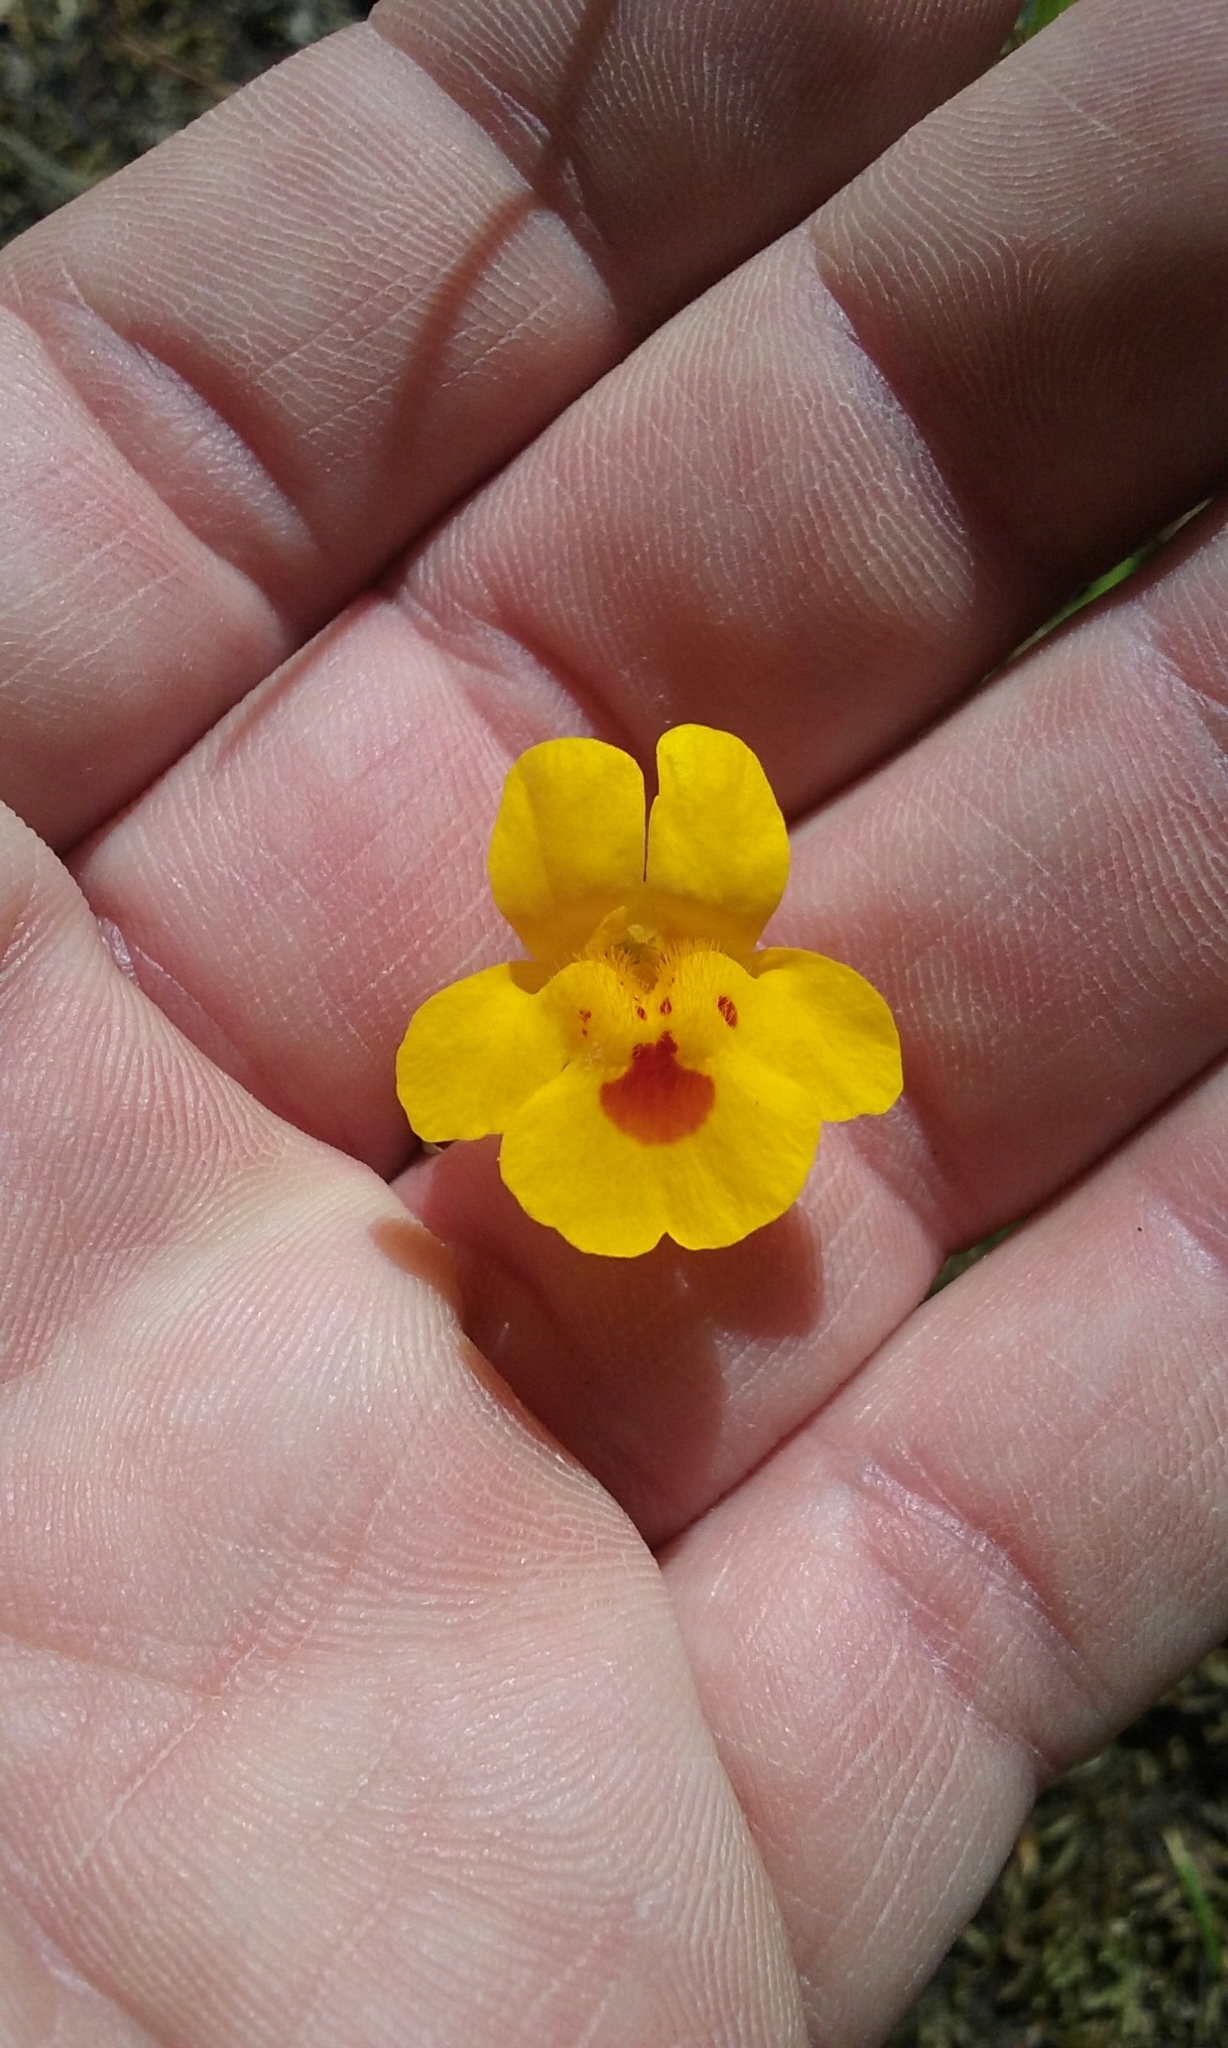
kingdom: Plantae
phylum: Tracheophyta
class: Magnoliopsida
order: Lamiales
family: Phrymaceae
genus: Erythranthe
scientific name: Erythranthe guttata
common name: Monkeyflower
